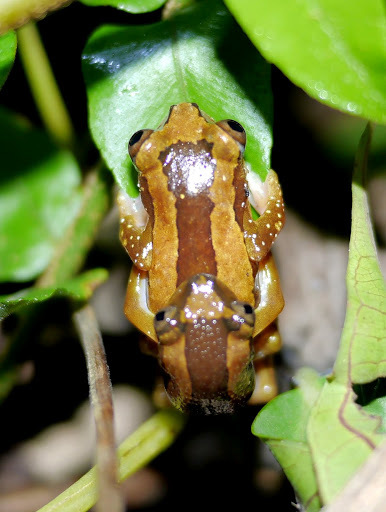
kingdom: Animalia
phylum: Chordata
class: Amphibia
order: Anura
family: Hyperoliidae
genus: Afrixalus
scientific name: Afrixalus paradorsalis
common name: Foulassi banana frog
